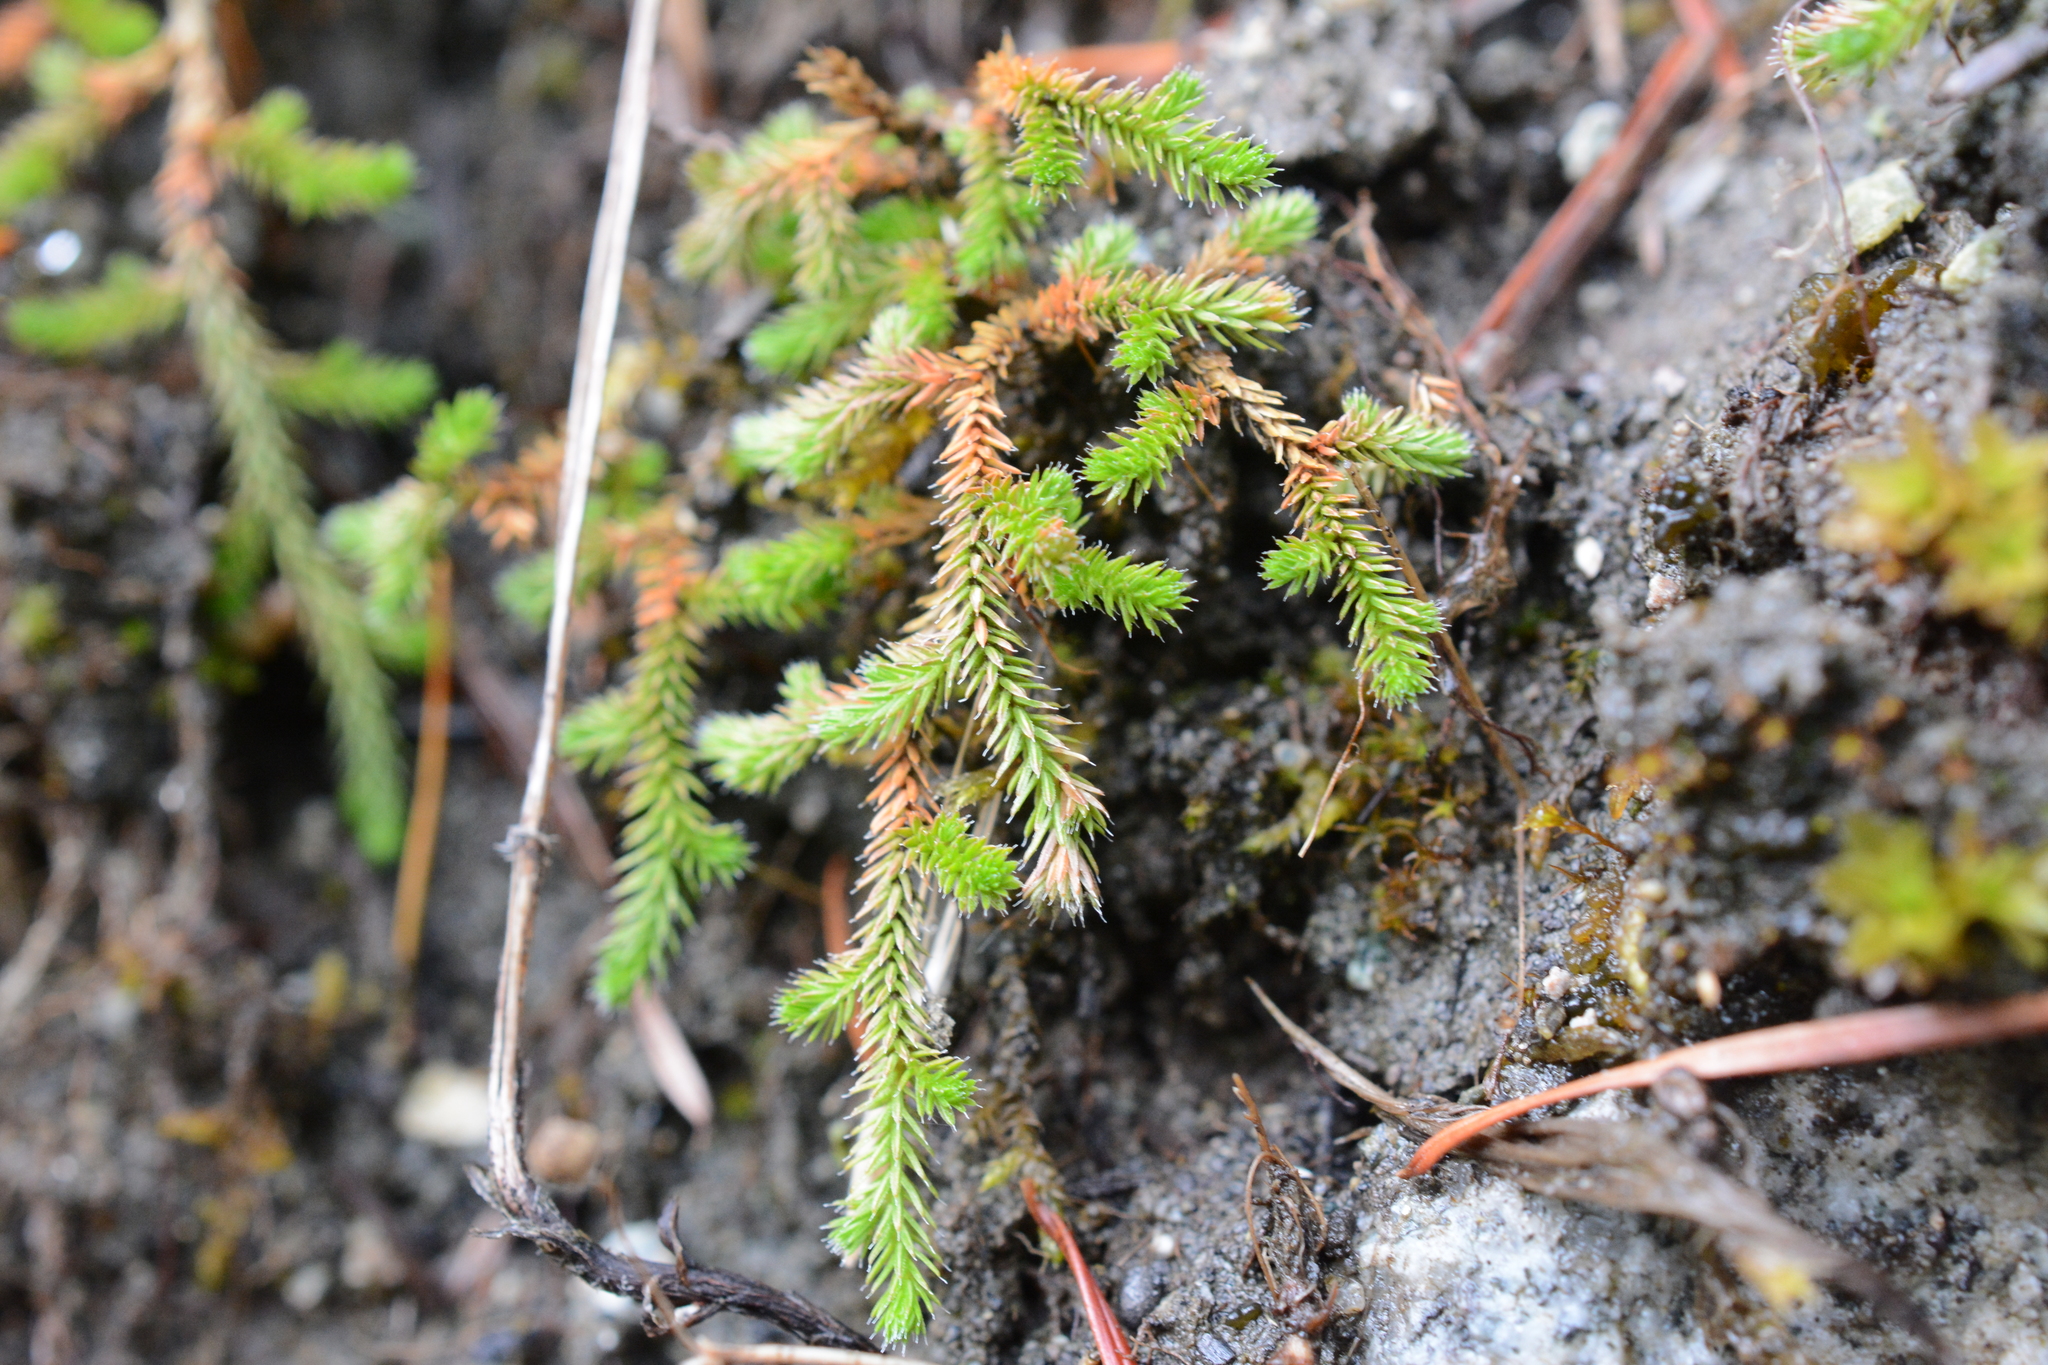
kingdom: Plantae
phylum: Tracheophyta
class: Lycopodiopsida
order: Selaginellales
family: Selaginellaceae
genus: Selaginella
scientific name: Selaginella wallacei
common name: Wallace's selaginella
